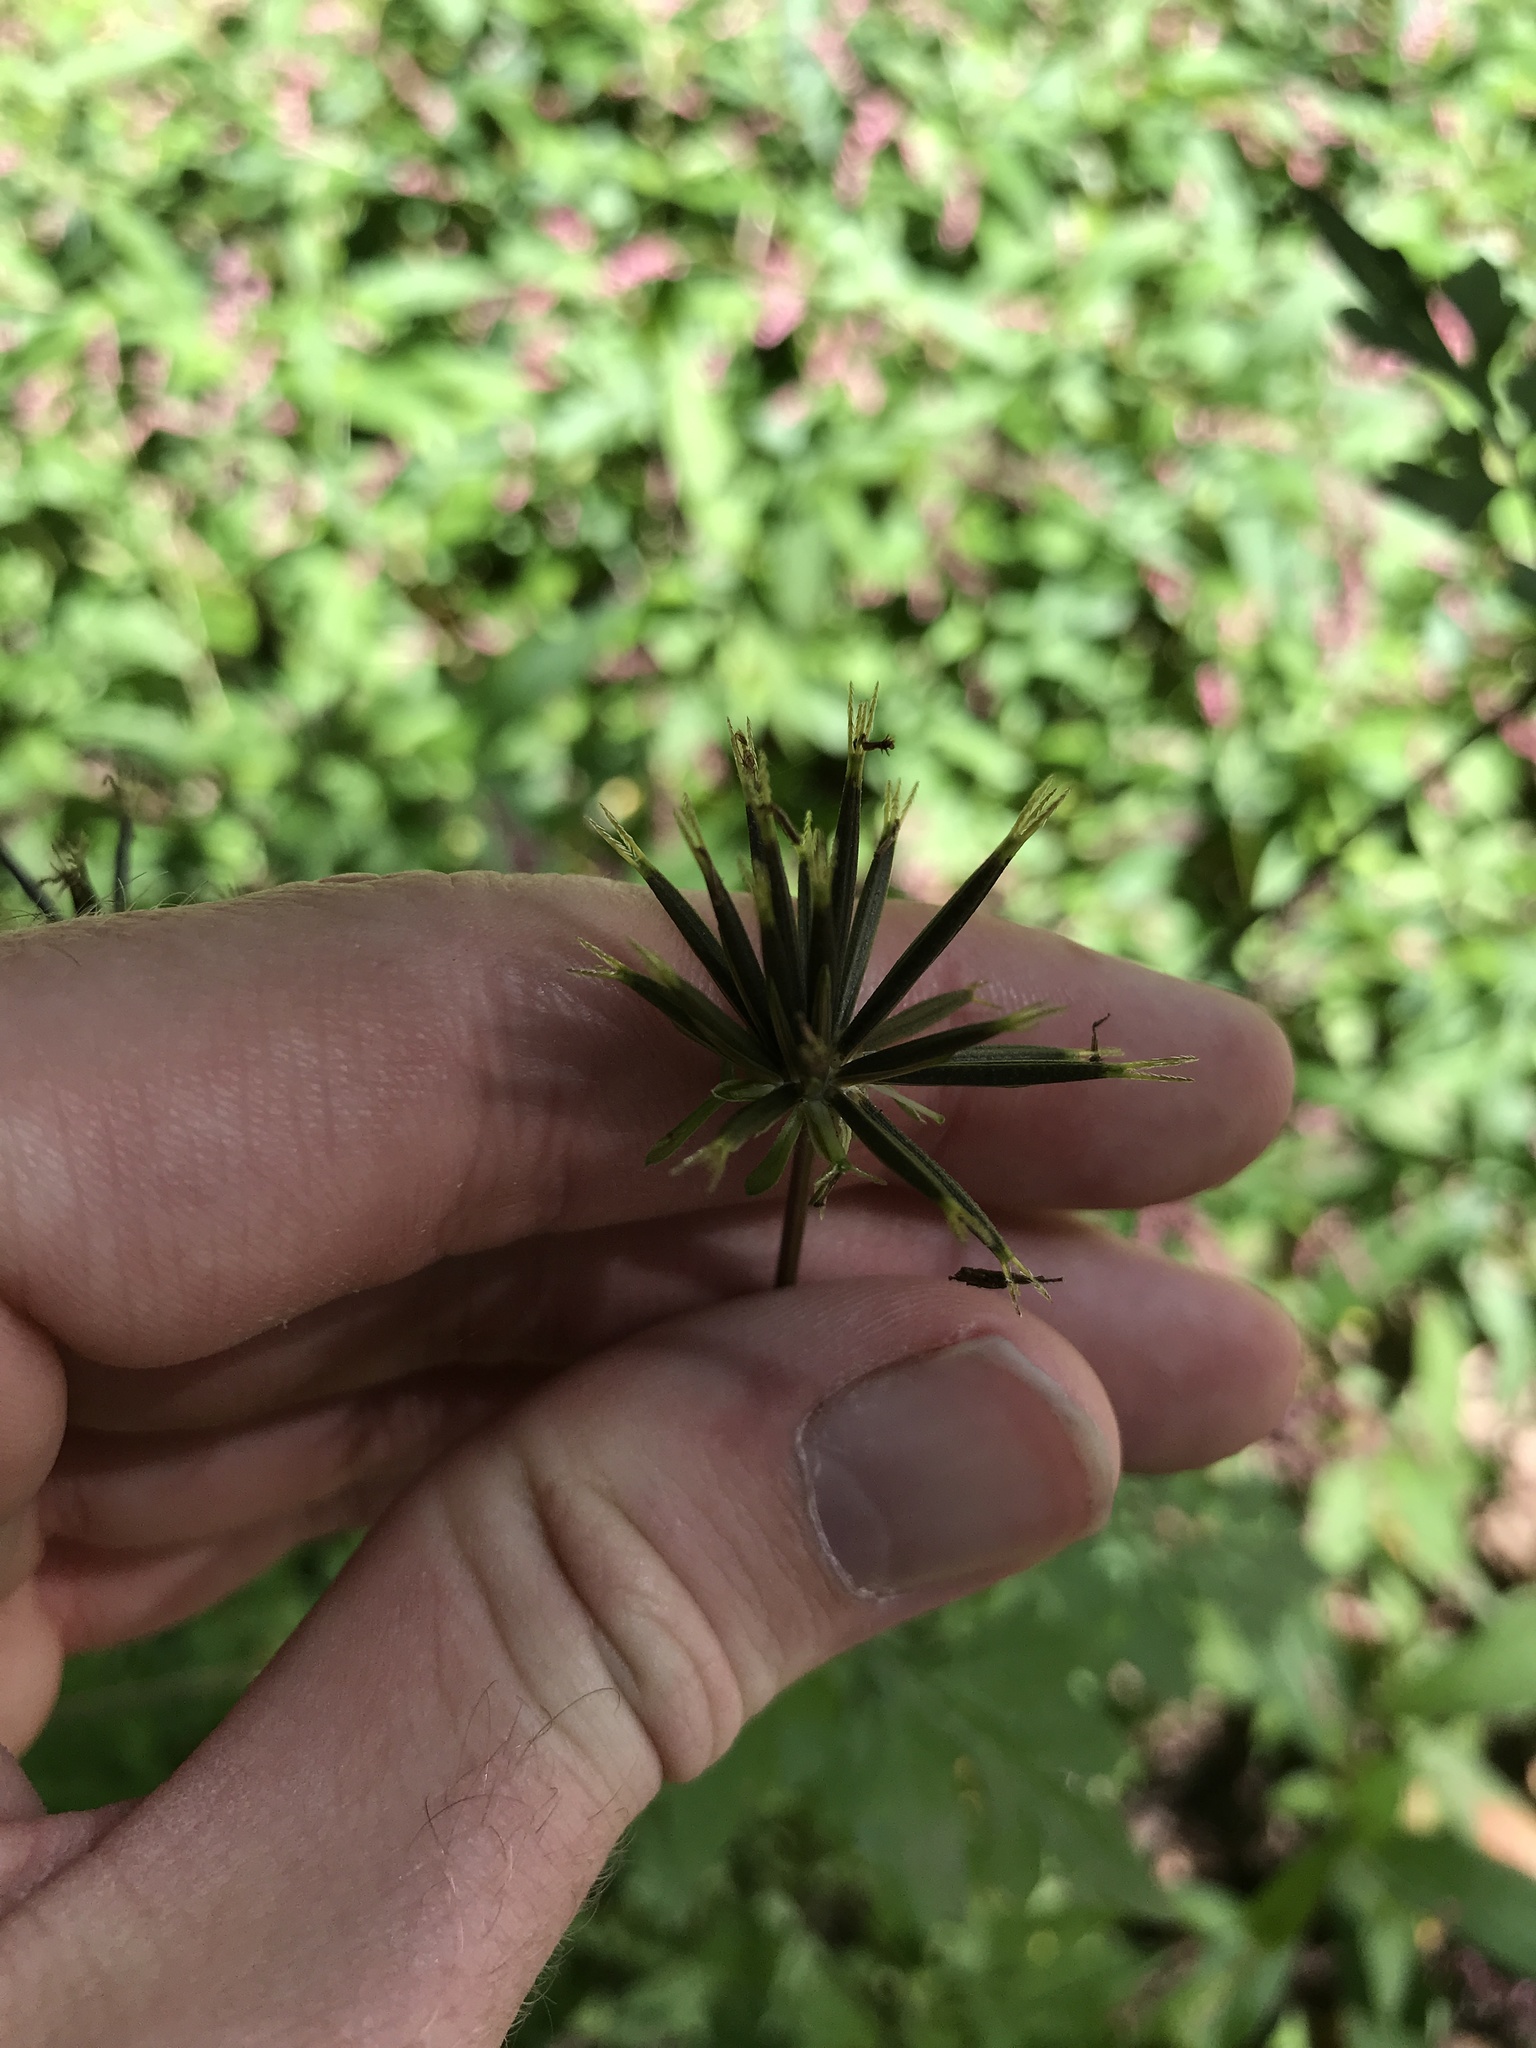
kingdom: Plantae
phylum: Tracheophyta
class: Magnoliopsida
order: Asterales
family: Asteraceae
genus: Bidens
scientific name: Bidens bipinnata
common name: Spanish-needles
